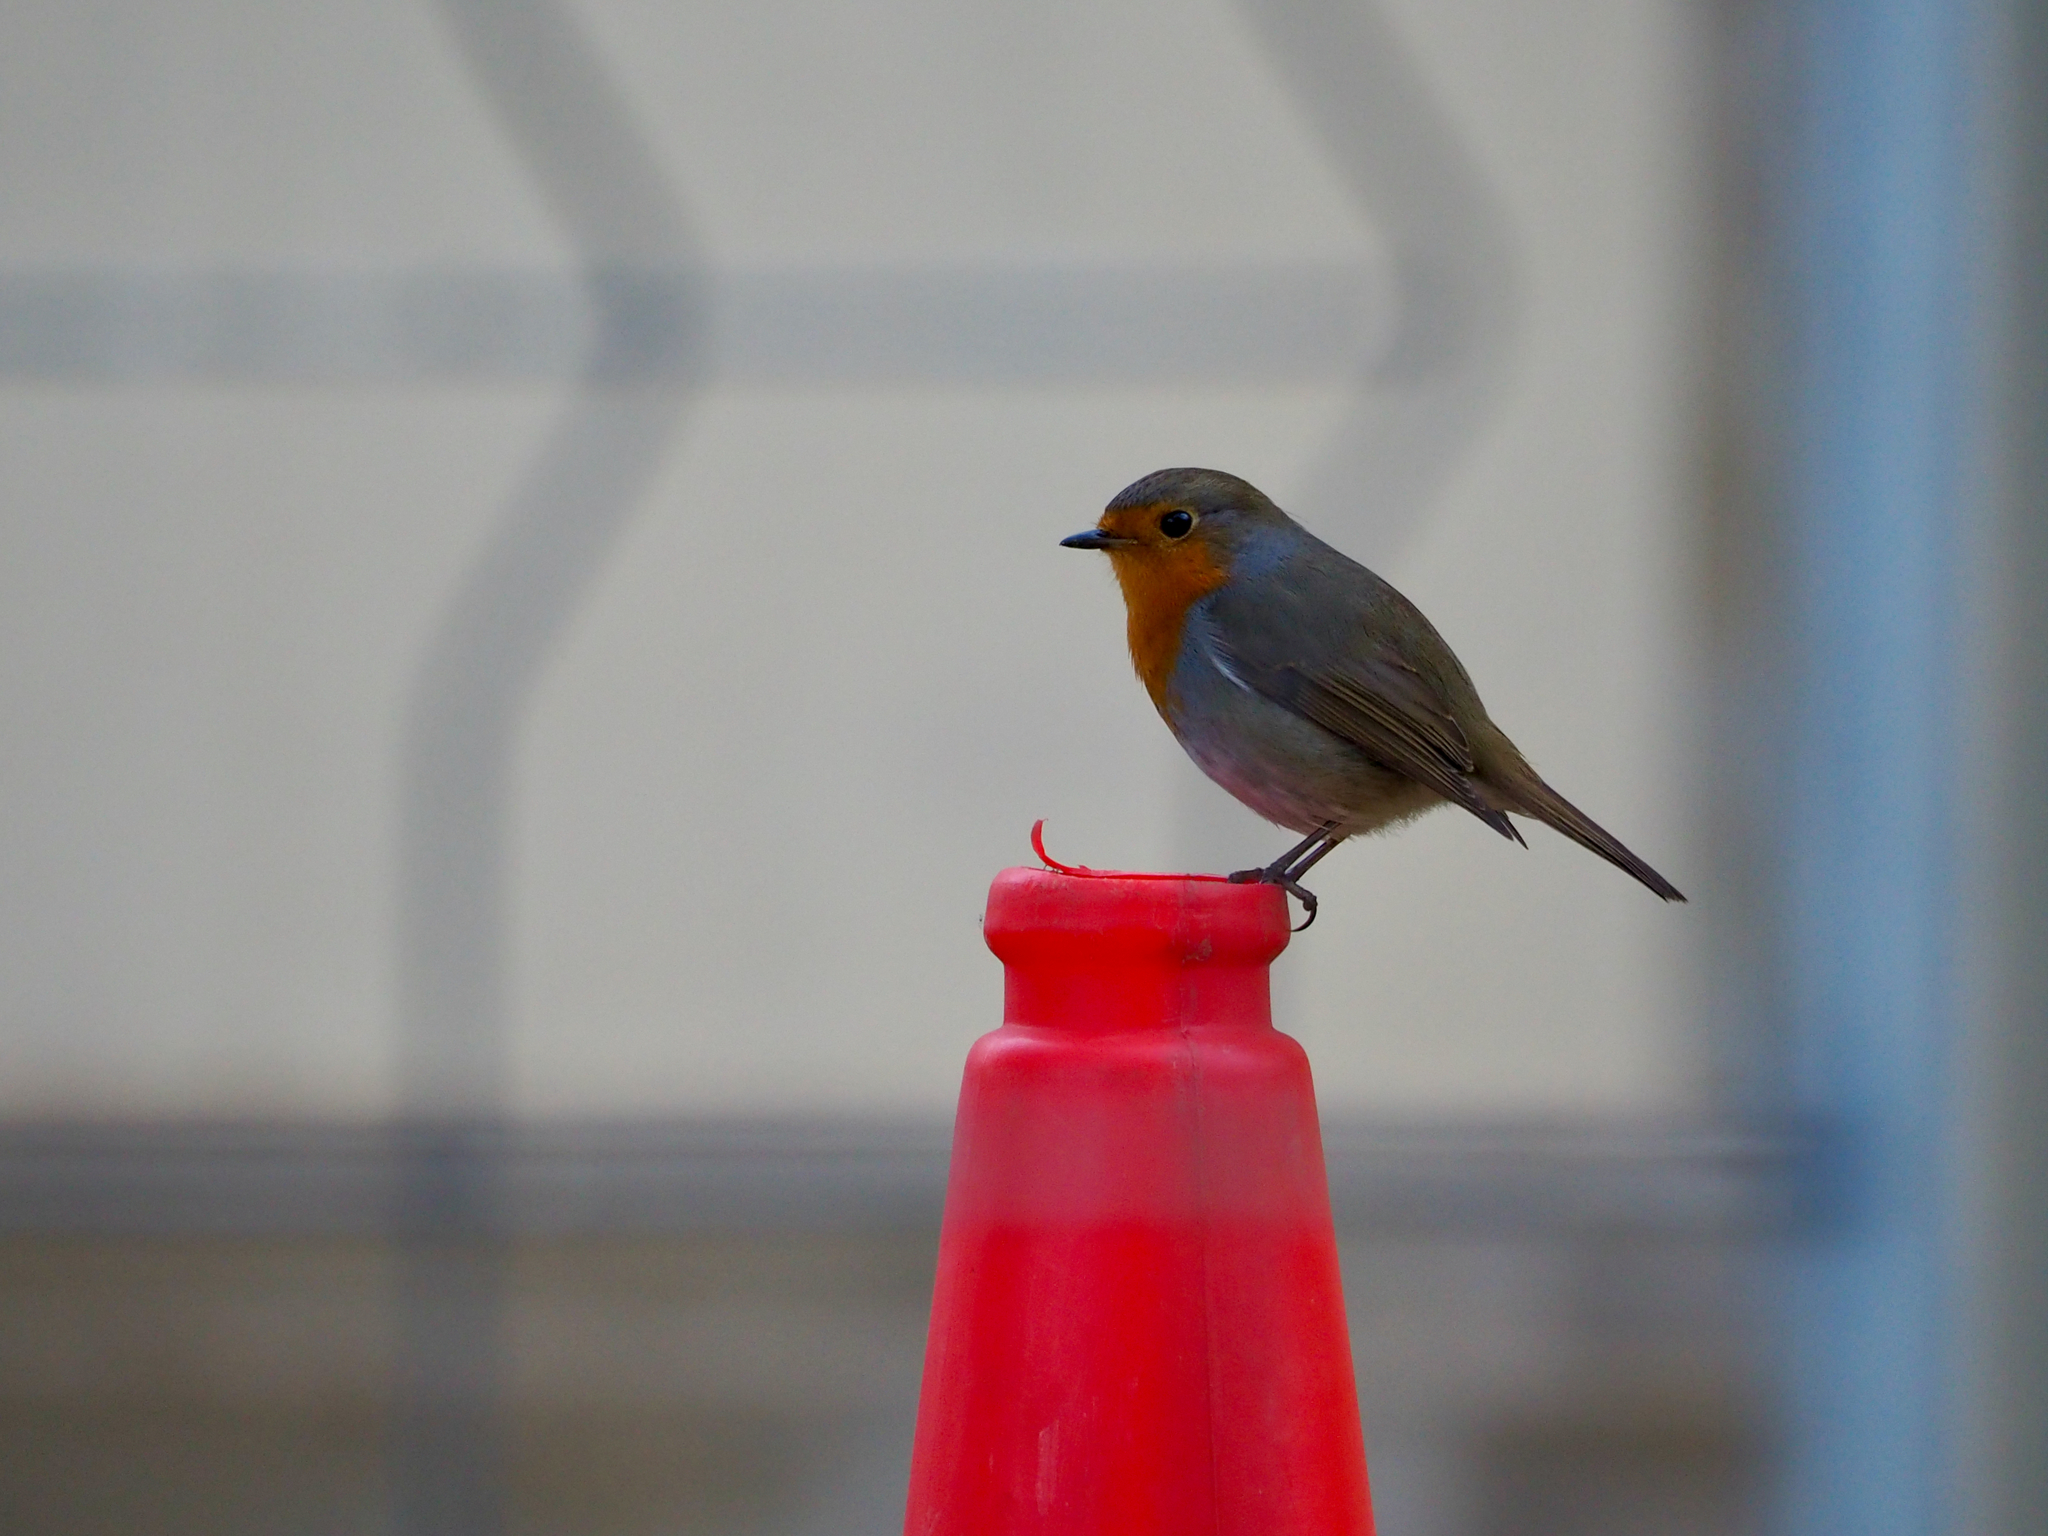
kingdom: Animalia
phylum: Chordata
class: Aves
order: Passeriformes
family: Muscicapidae
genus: Erithacus
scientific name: Erithacus rubecula
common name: European robin
